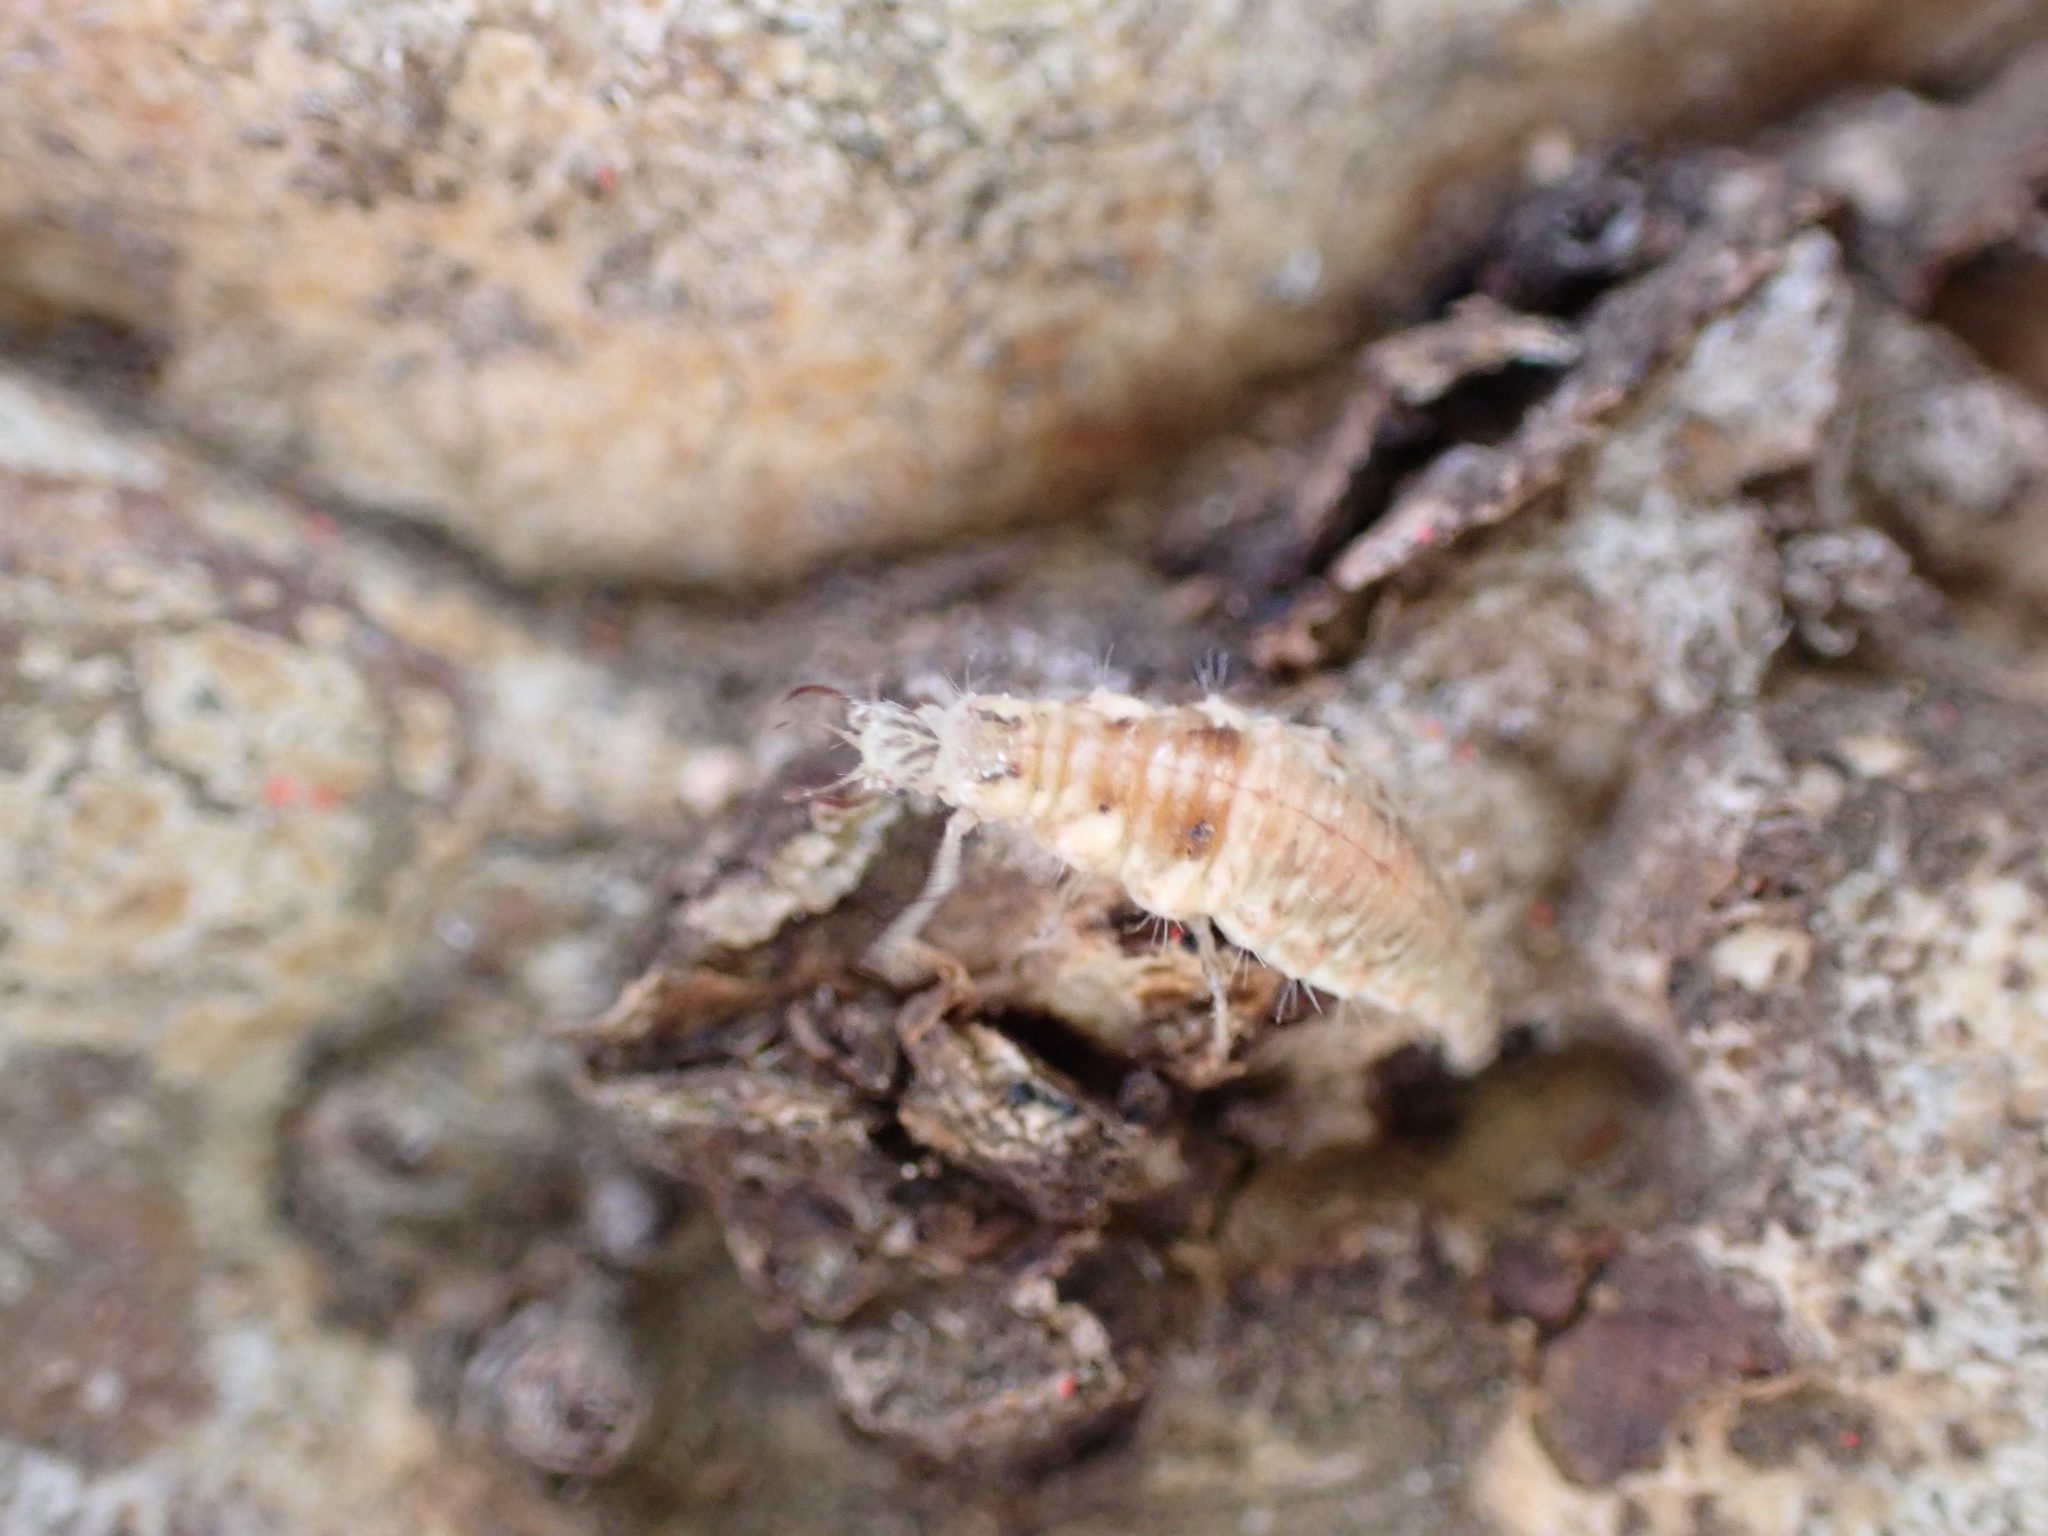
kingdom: Animalia
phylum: Arthropoda
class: Insecta
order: Neuroptera
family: Chrysopidae
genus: Chrysoperla
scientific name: Chrysoperla comanche
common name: Green lacewing
